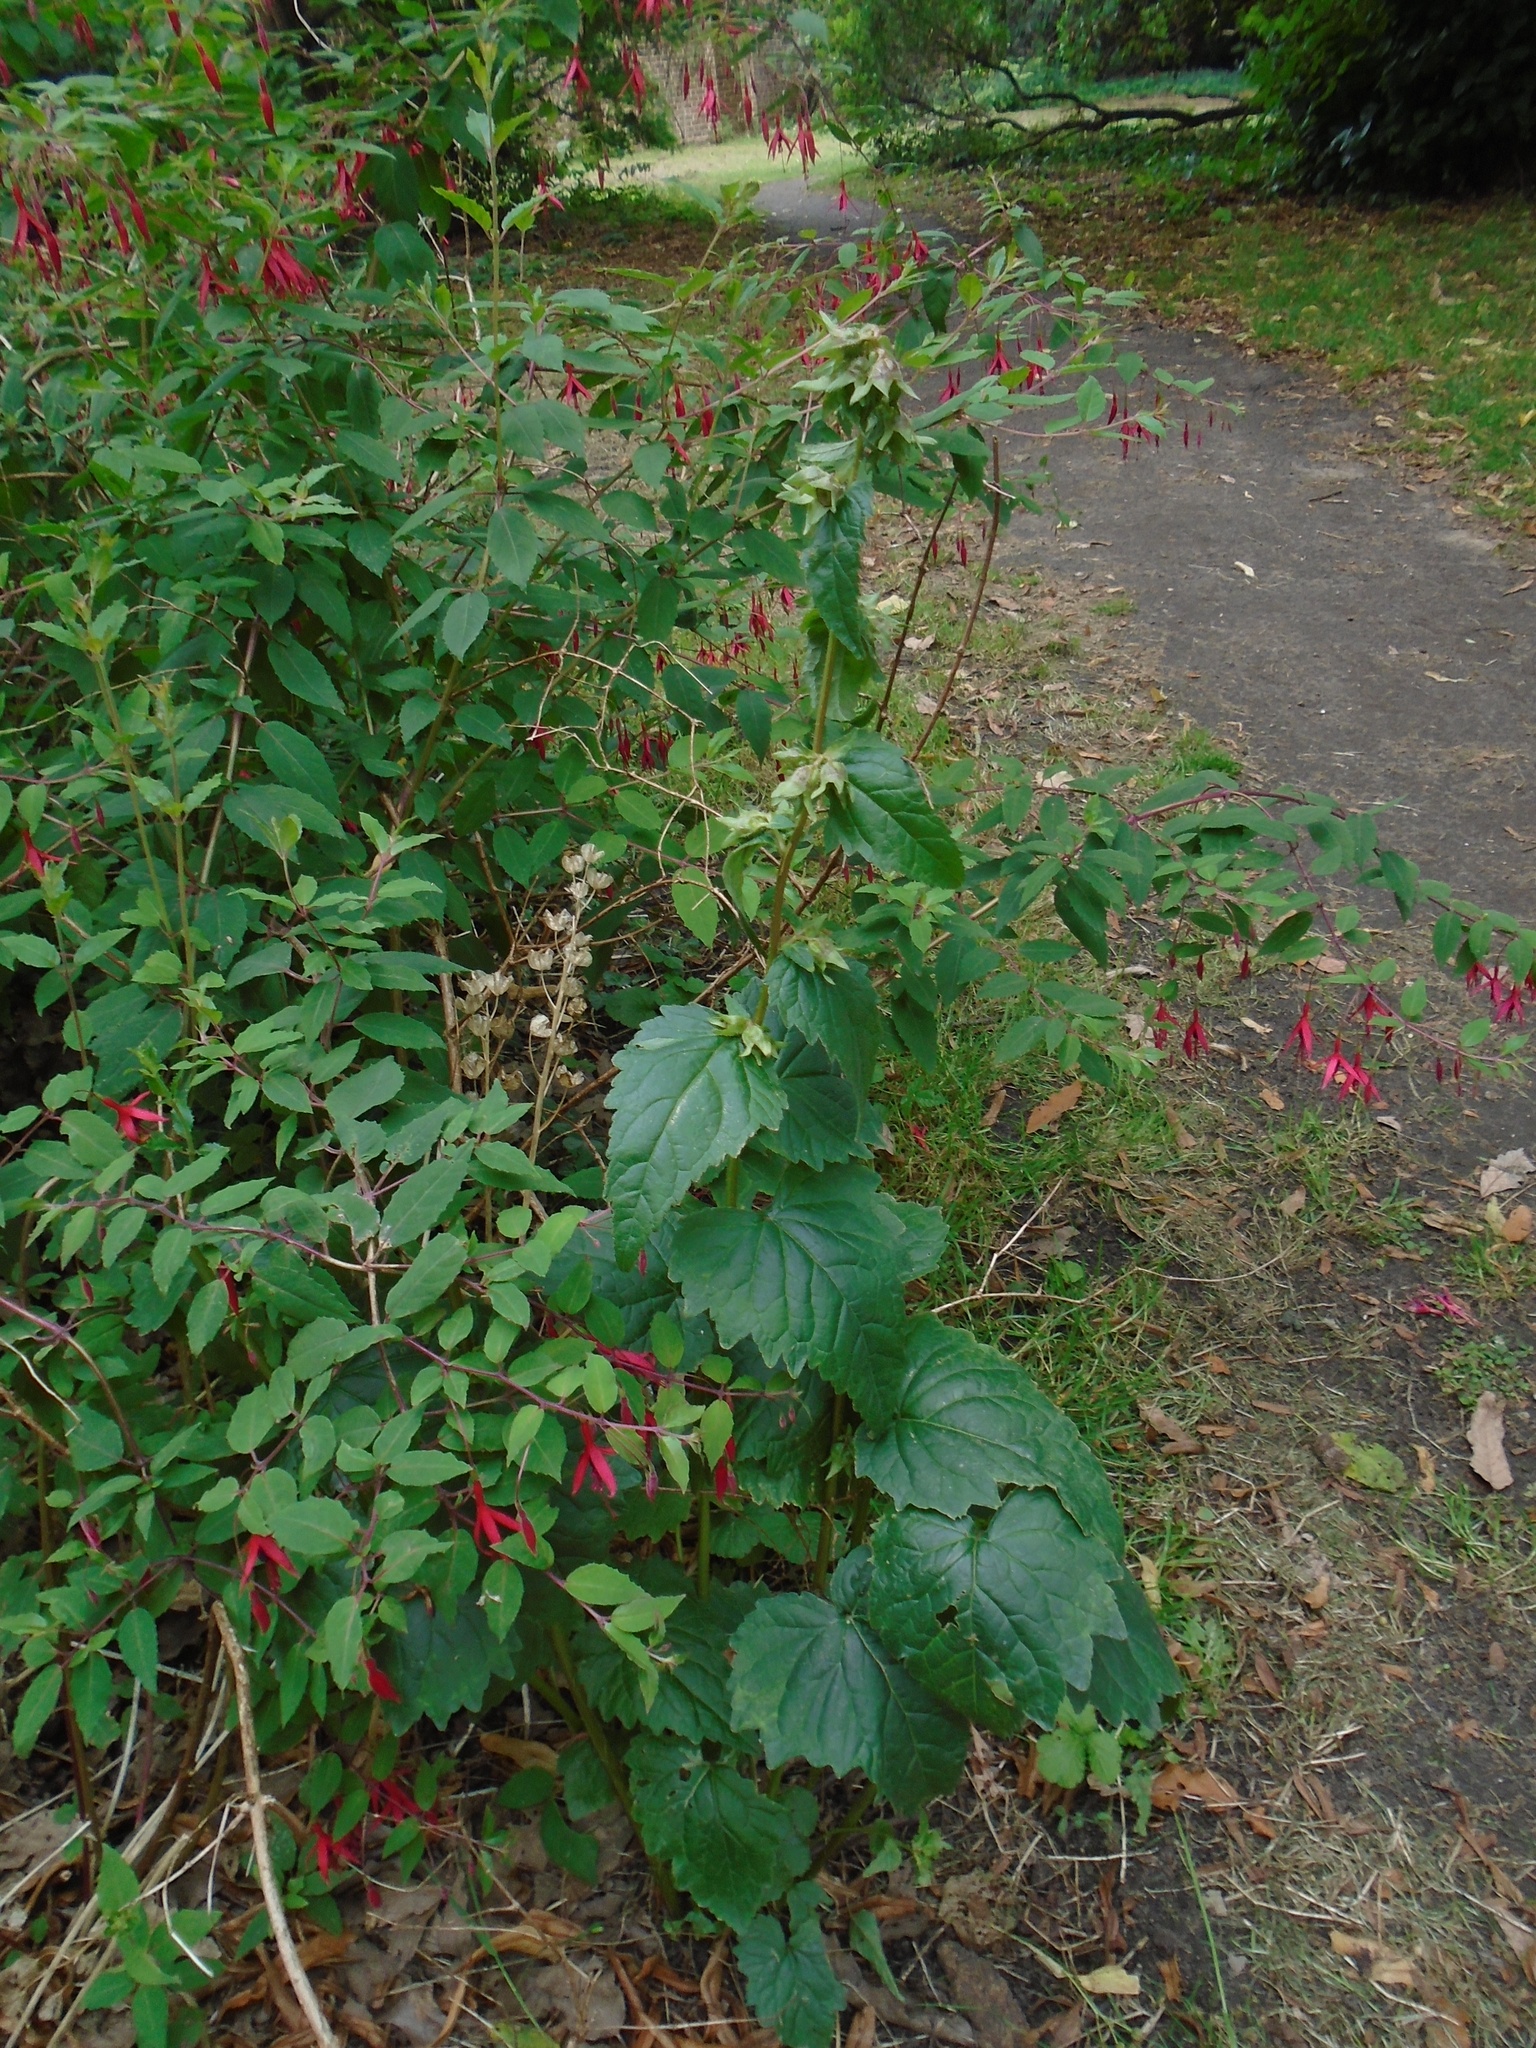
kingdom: Plantae
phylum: Tracheophyta
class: Magnoliopsida
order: Asterales
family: Campanulaceae
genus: Campanula
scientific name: Campanula trachelium
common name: Nettle-leaved bellflower
